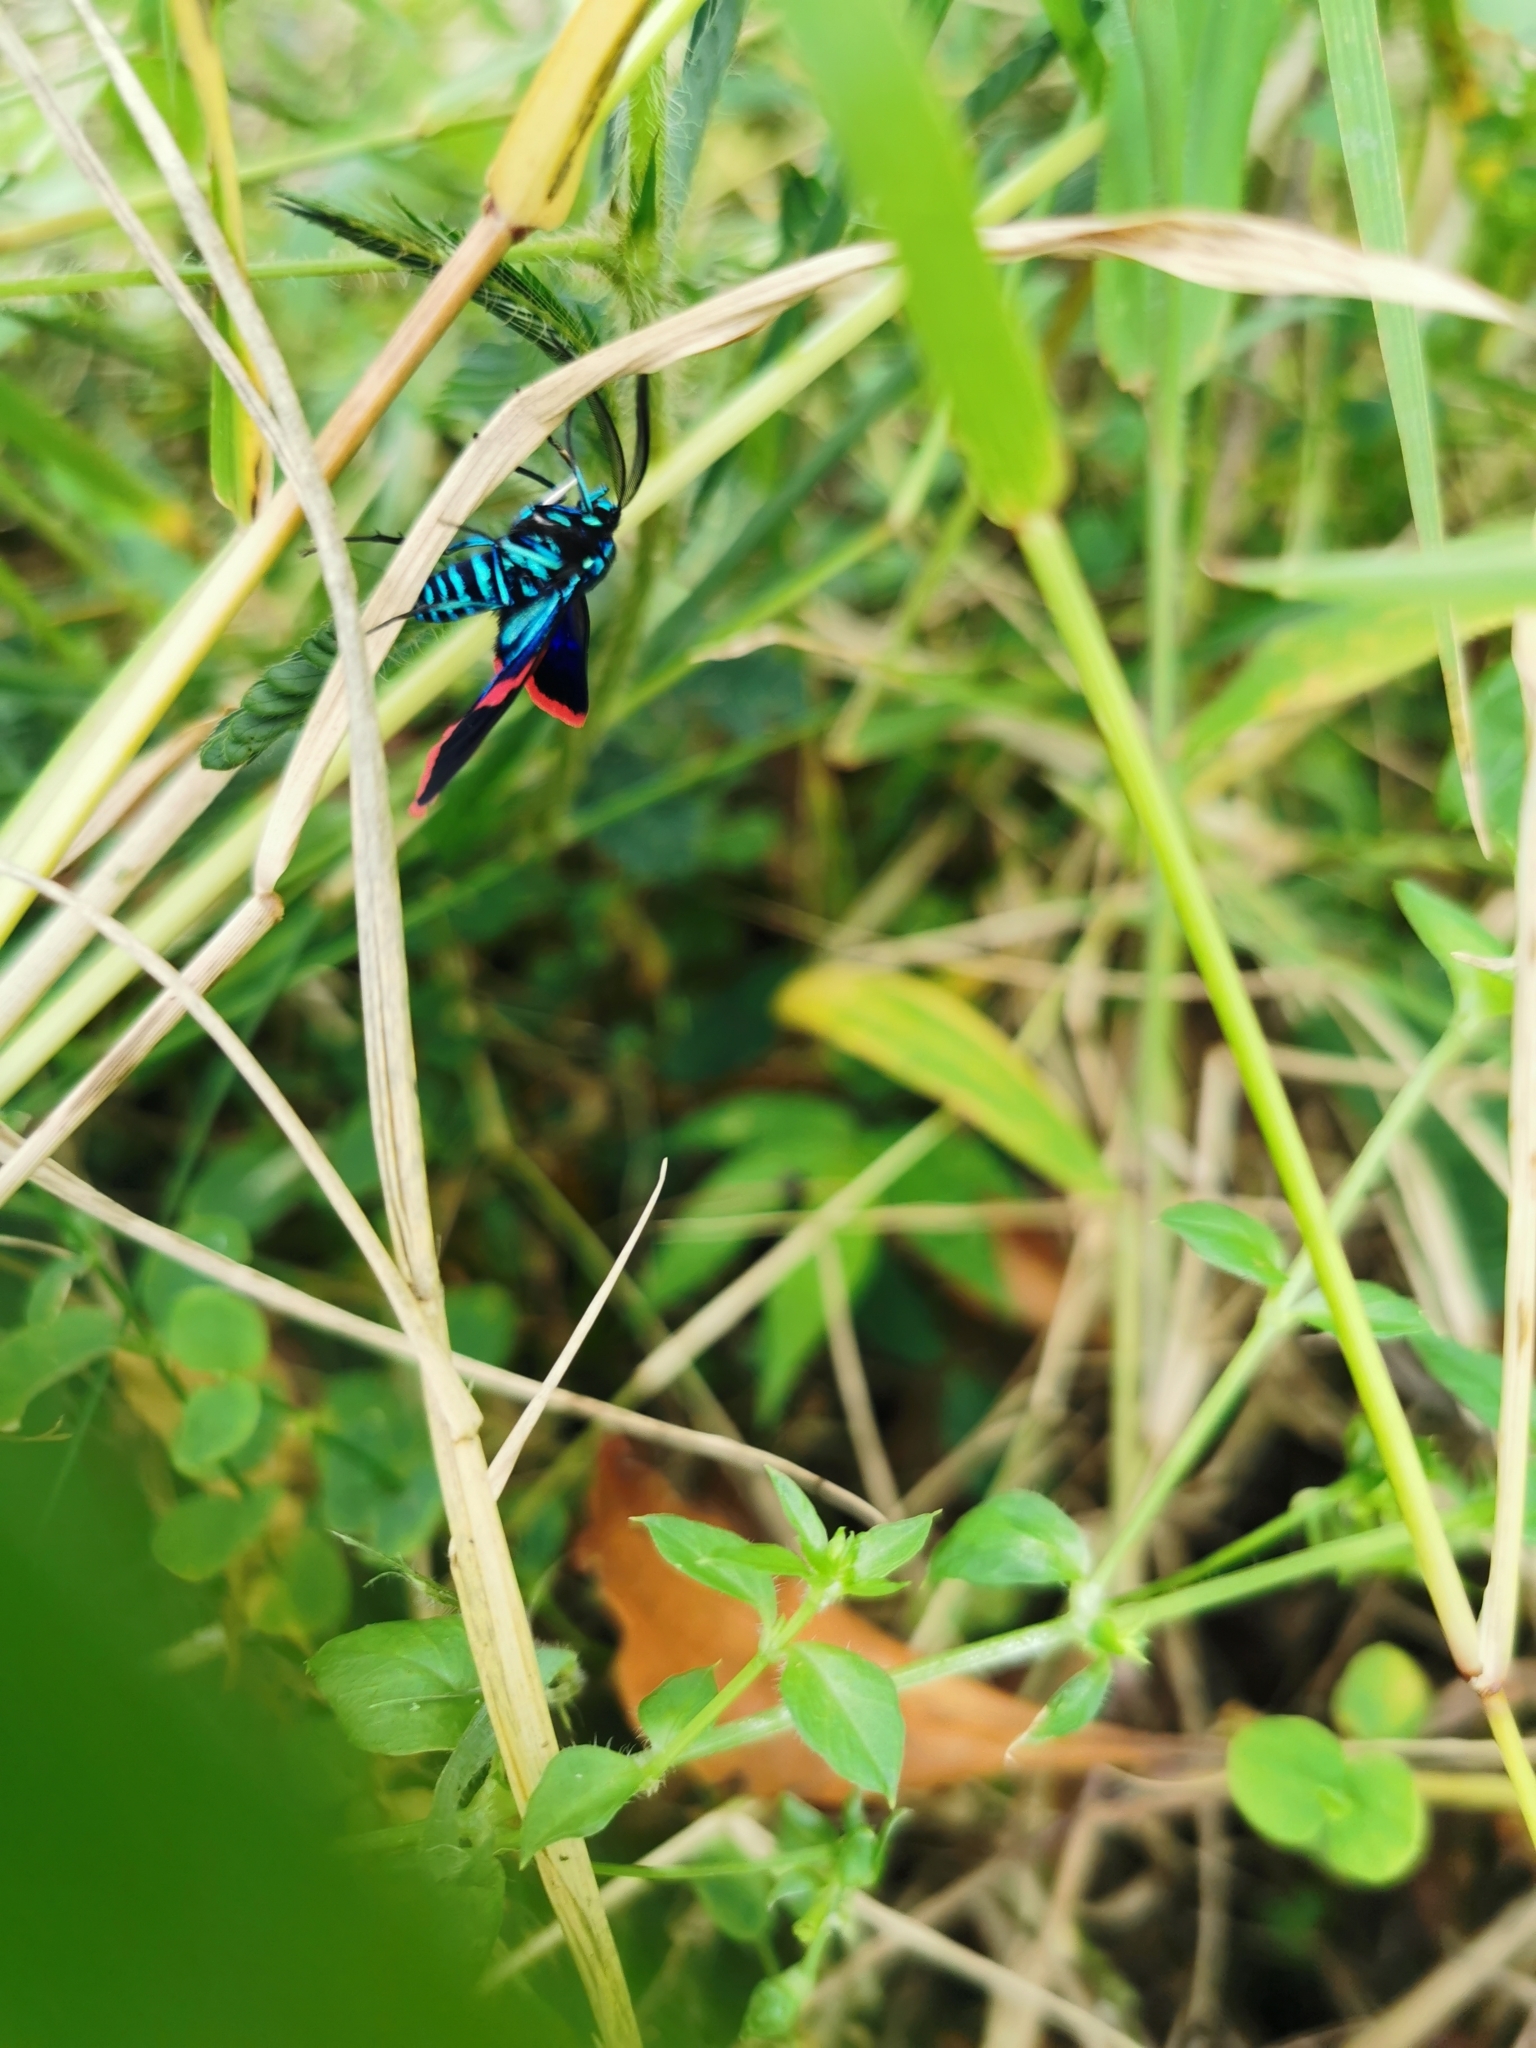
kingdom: Animalia
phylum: Arthropoda
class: Insecta
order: Lepidoptera
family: Erebidae
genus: Cyanopepla
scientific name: Cyanopepla scintillans
